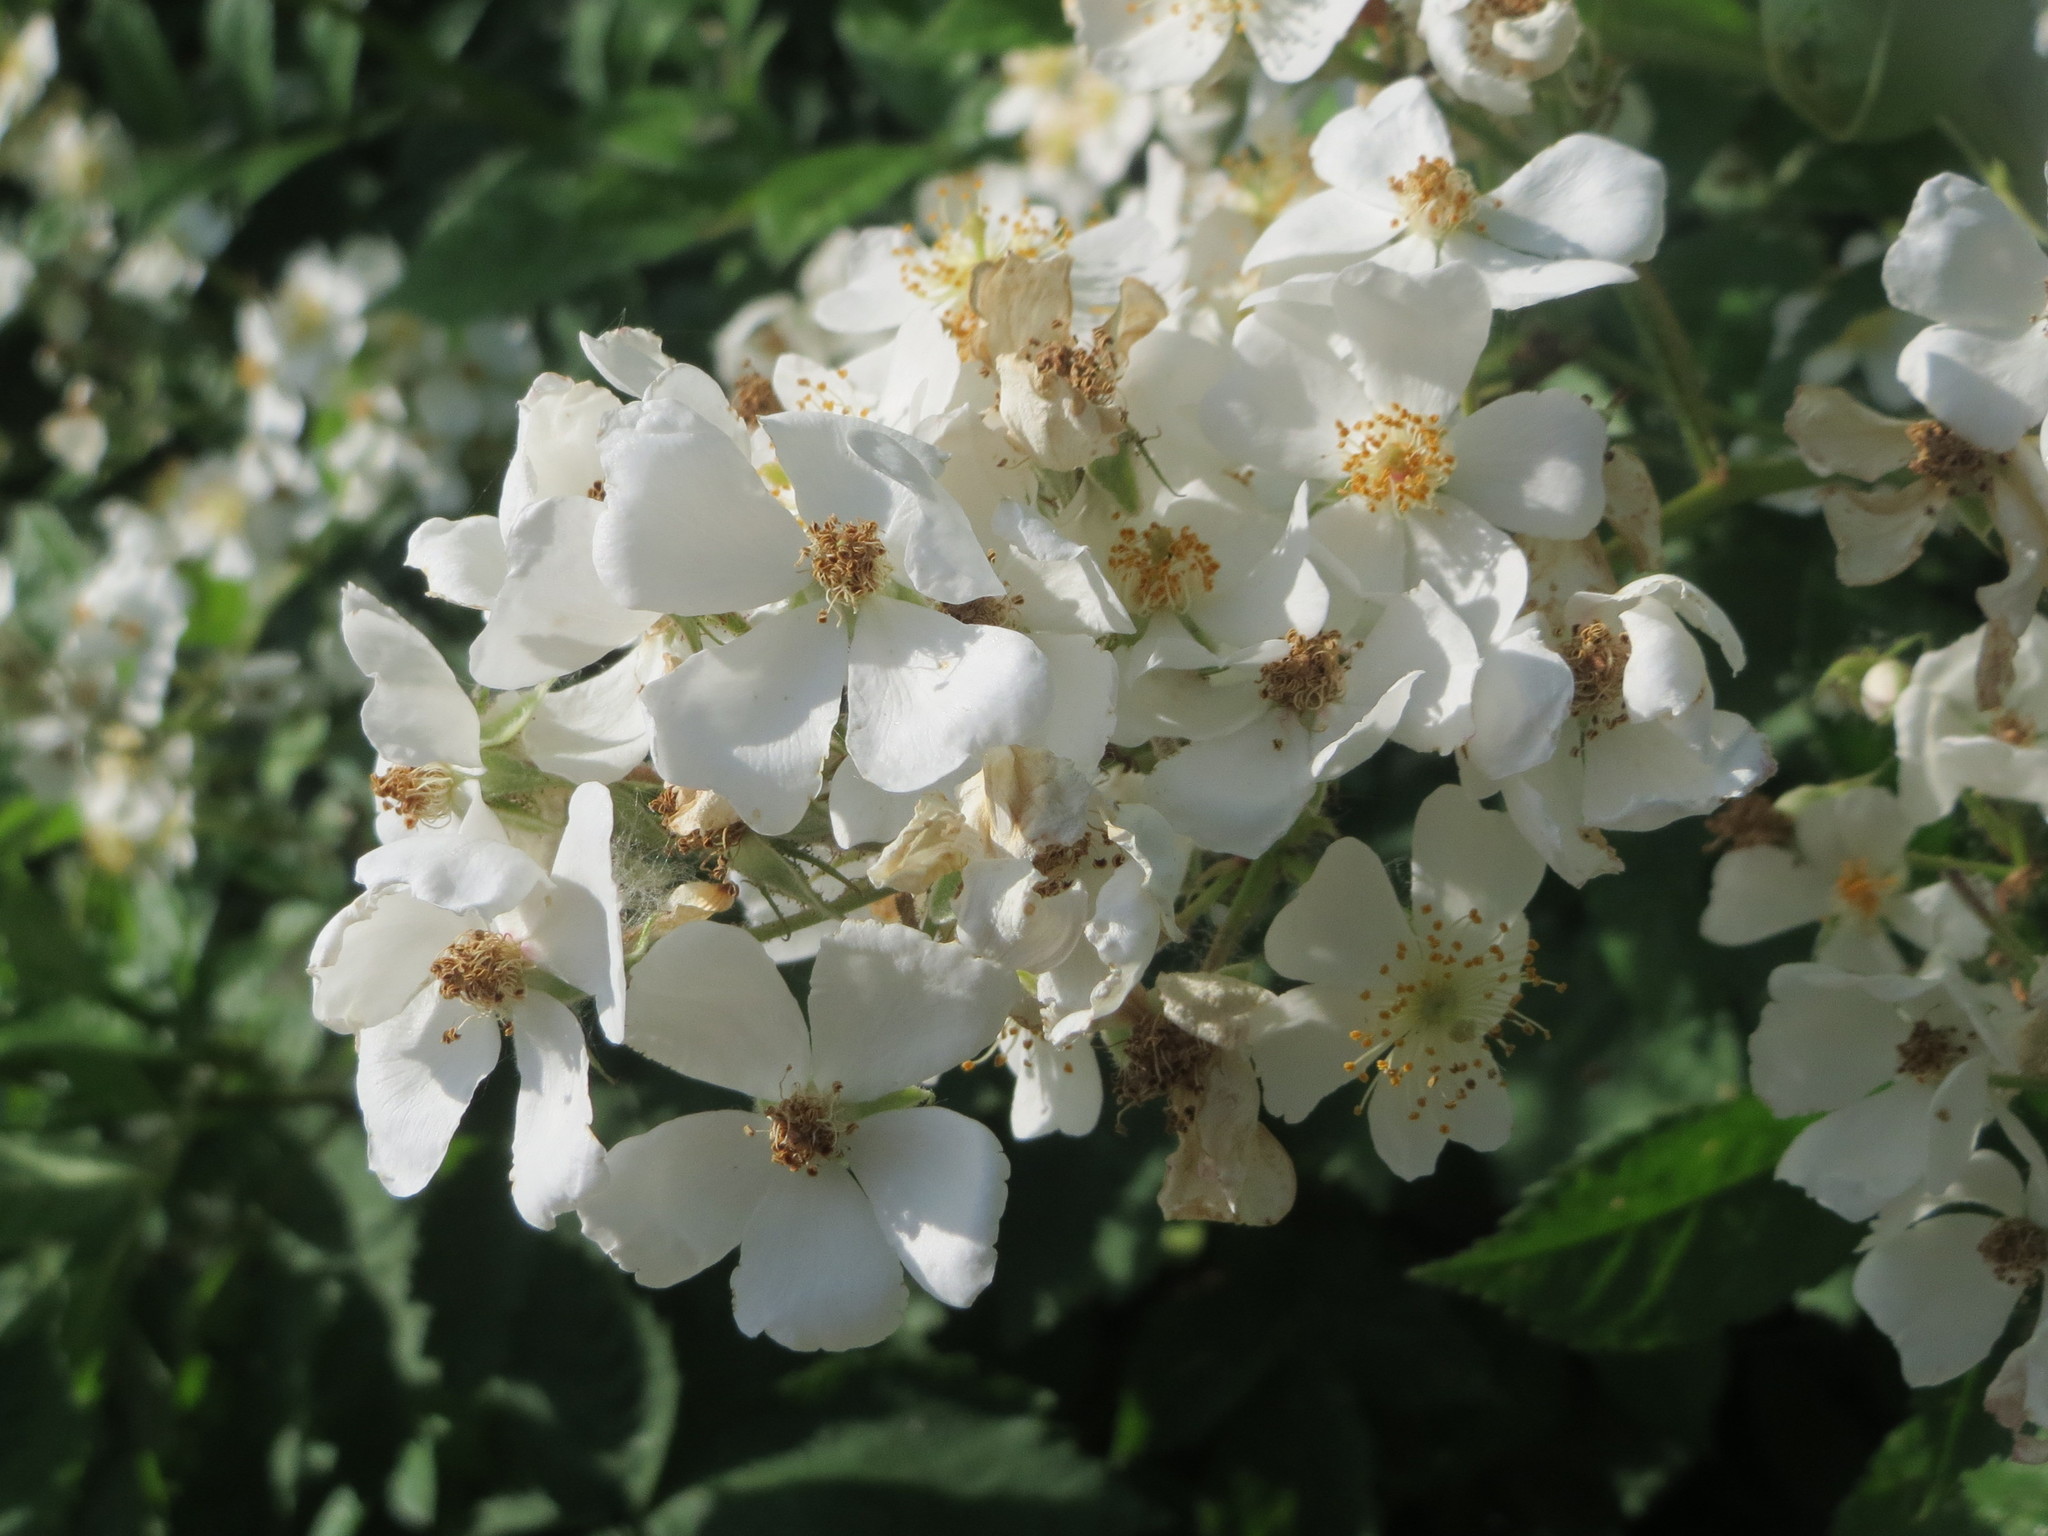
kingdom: Plantae
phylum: Tracheophyta
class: Magnoliopsida
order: Rosales
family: Rosaceae
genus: Rosa
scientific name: Rosa multiflora
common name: Multiflora rose
